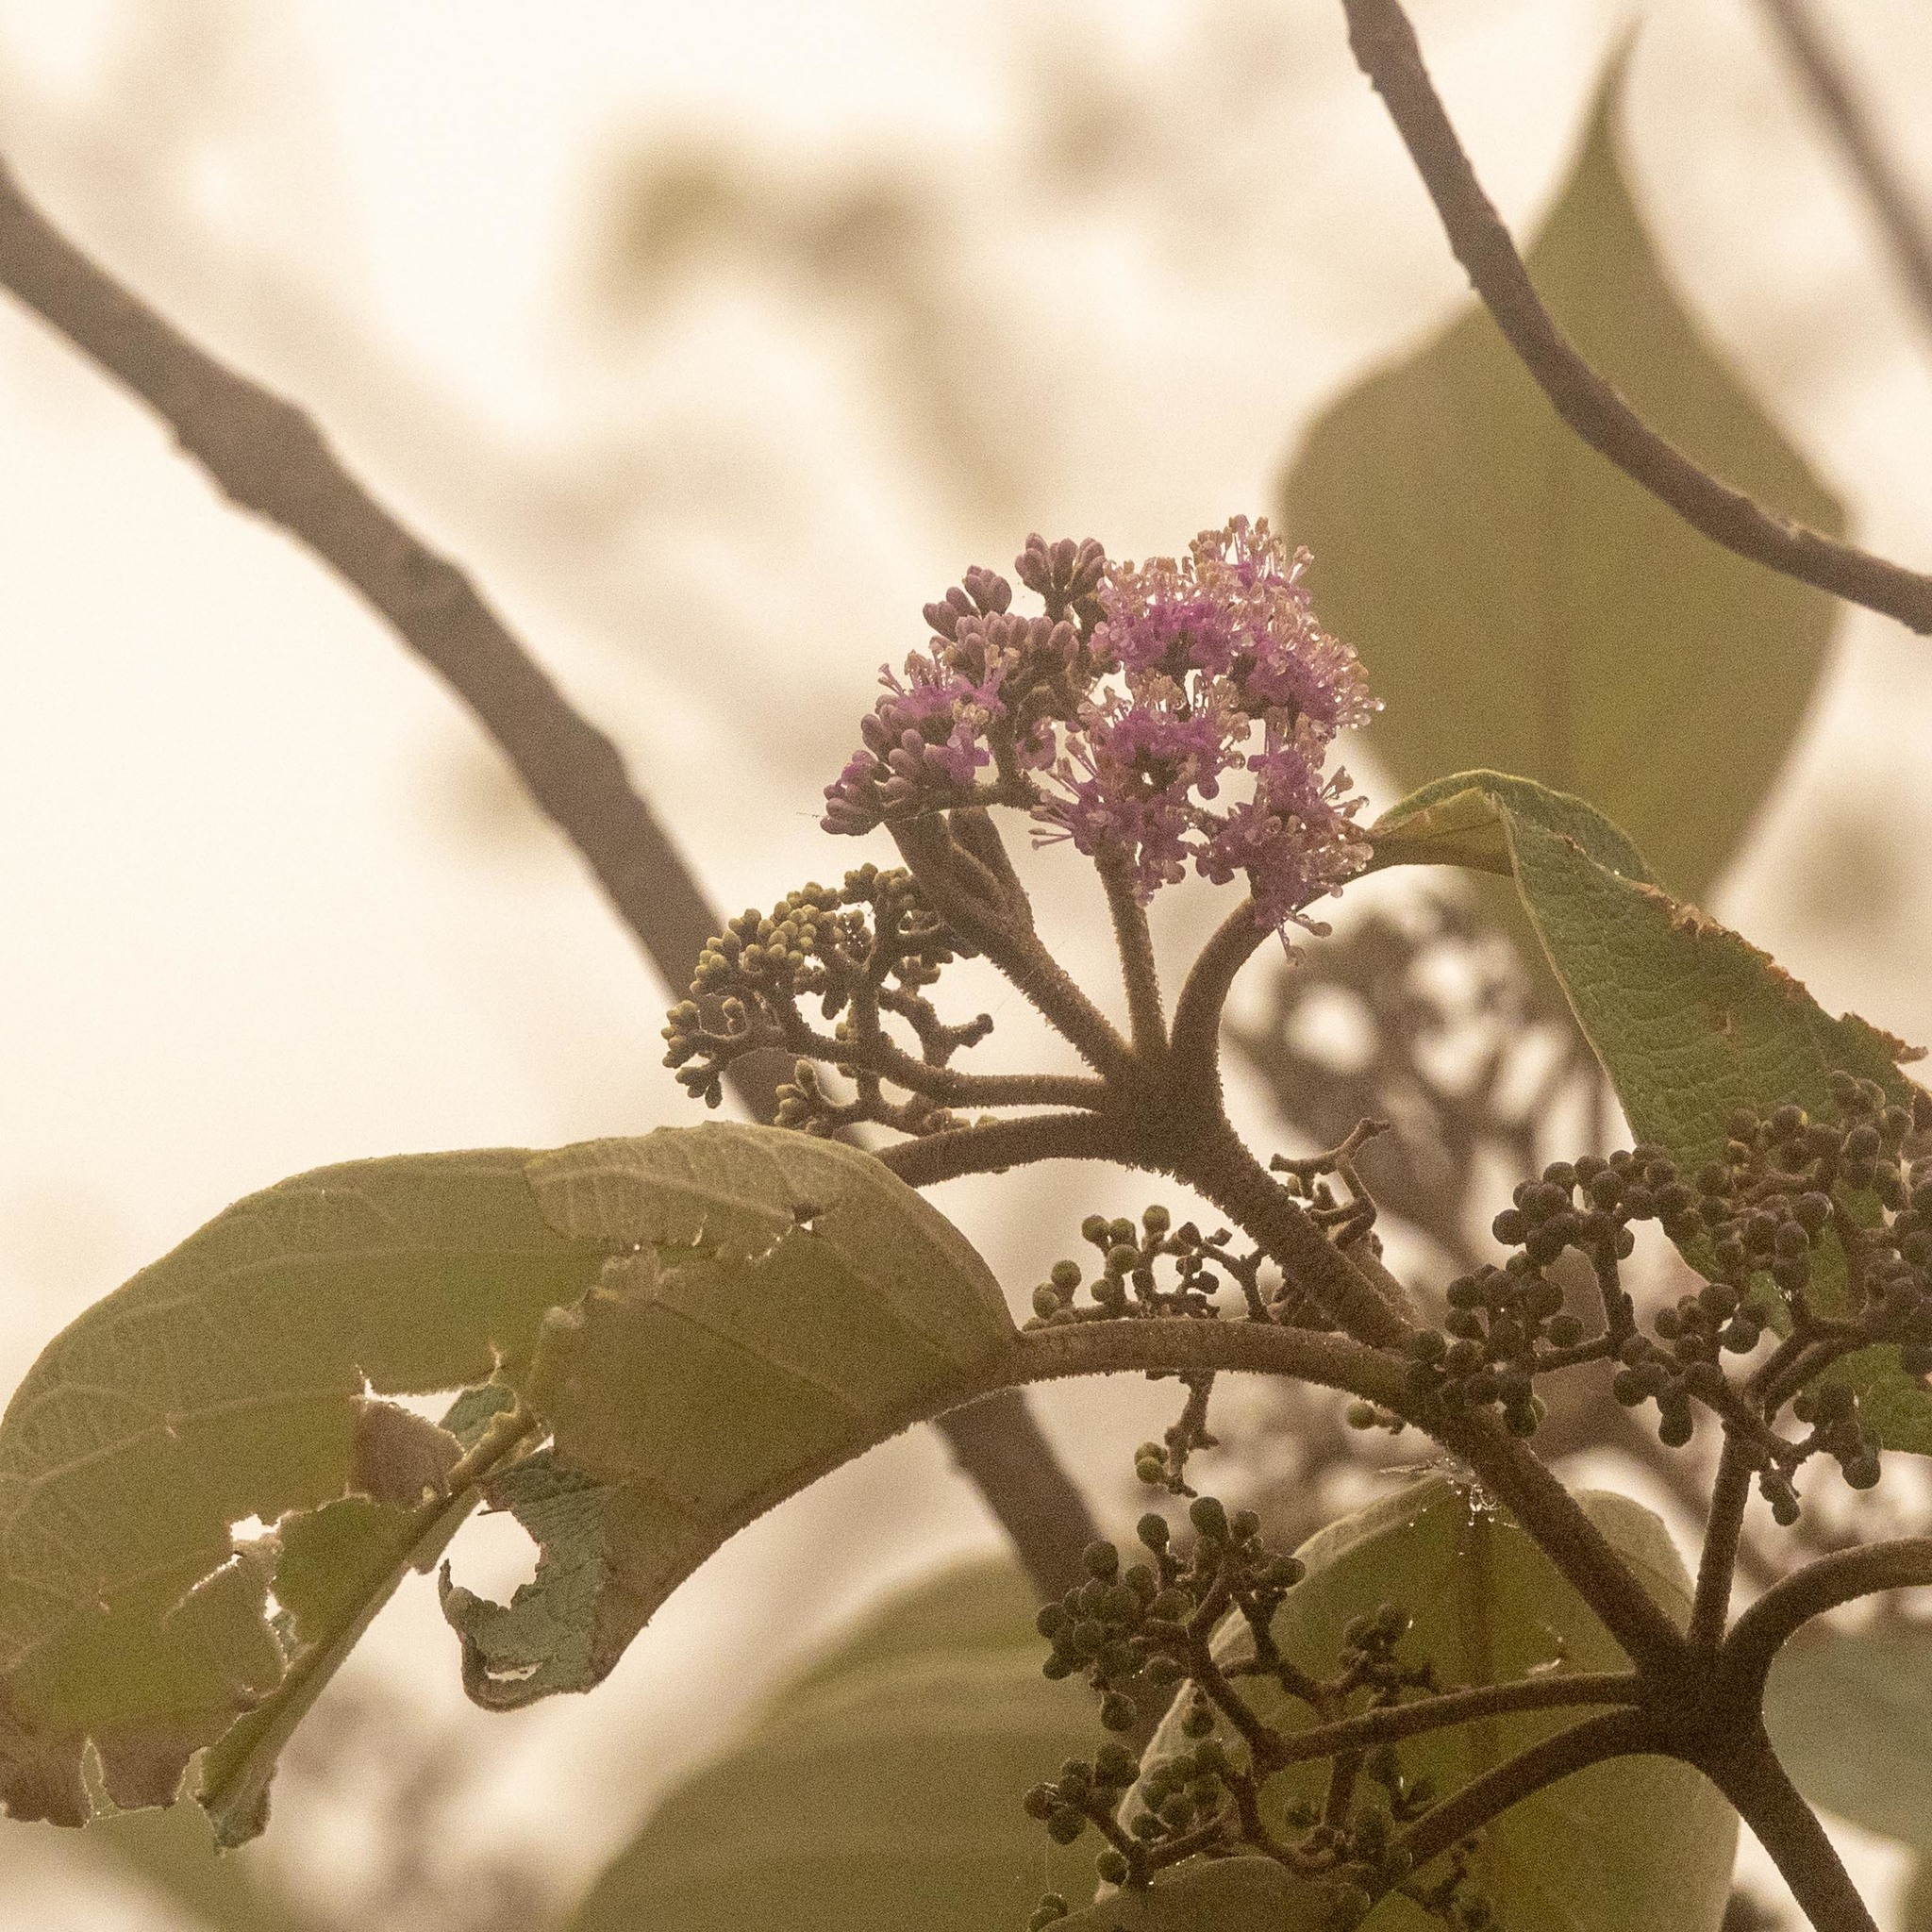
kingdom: Plantae
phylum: Tracheophyta
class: Magnoliopsida
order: Lamiales
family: Lamiaceae
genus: Callicarpa
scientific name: Callicarpa tomentosa
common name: Great woolly malayan-lilac
